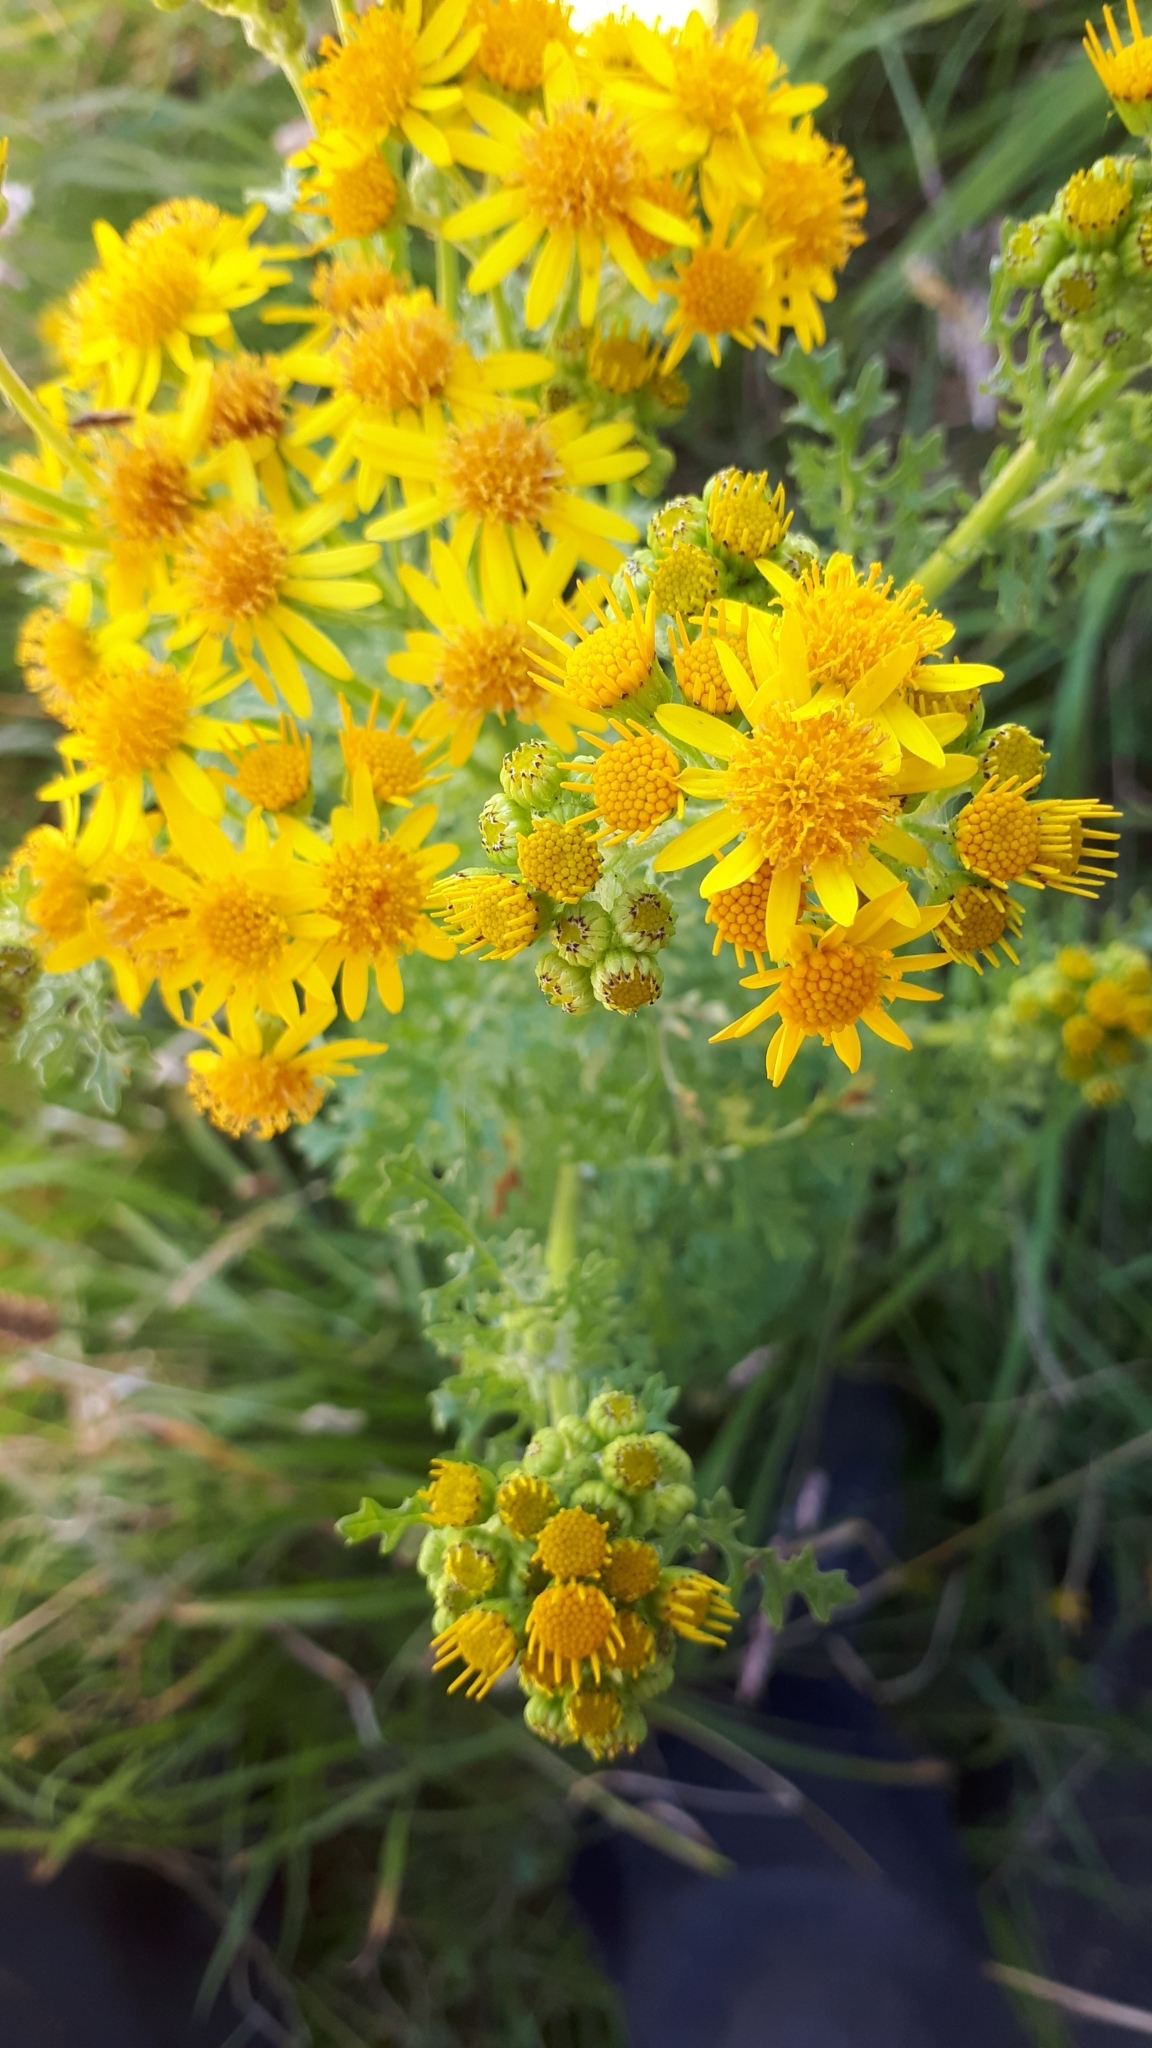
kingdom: Plantae
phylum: Tracheophyta
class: Magnoliopsida
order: Asterales
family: Asteraceae
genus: Jacobaea
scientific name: Jacobaea vulgaris
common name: Stinking willie
